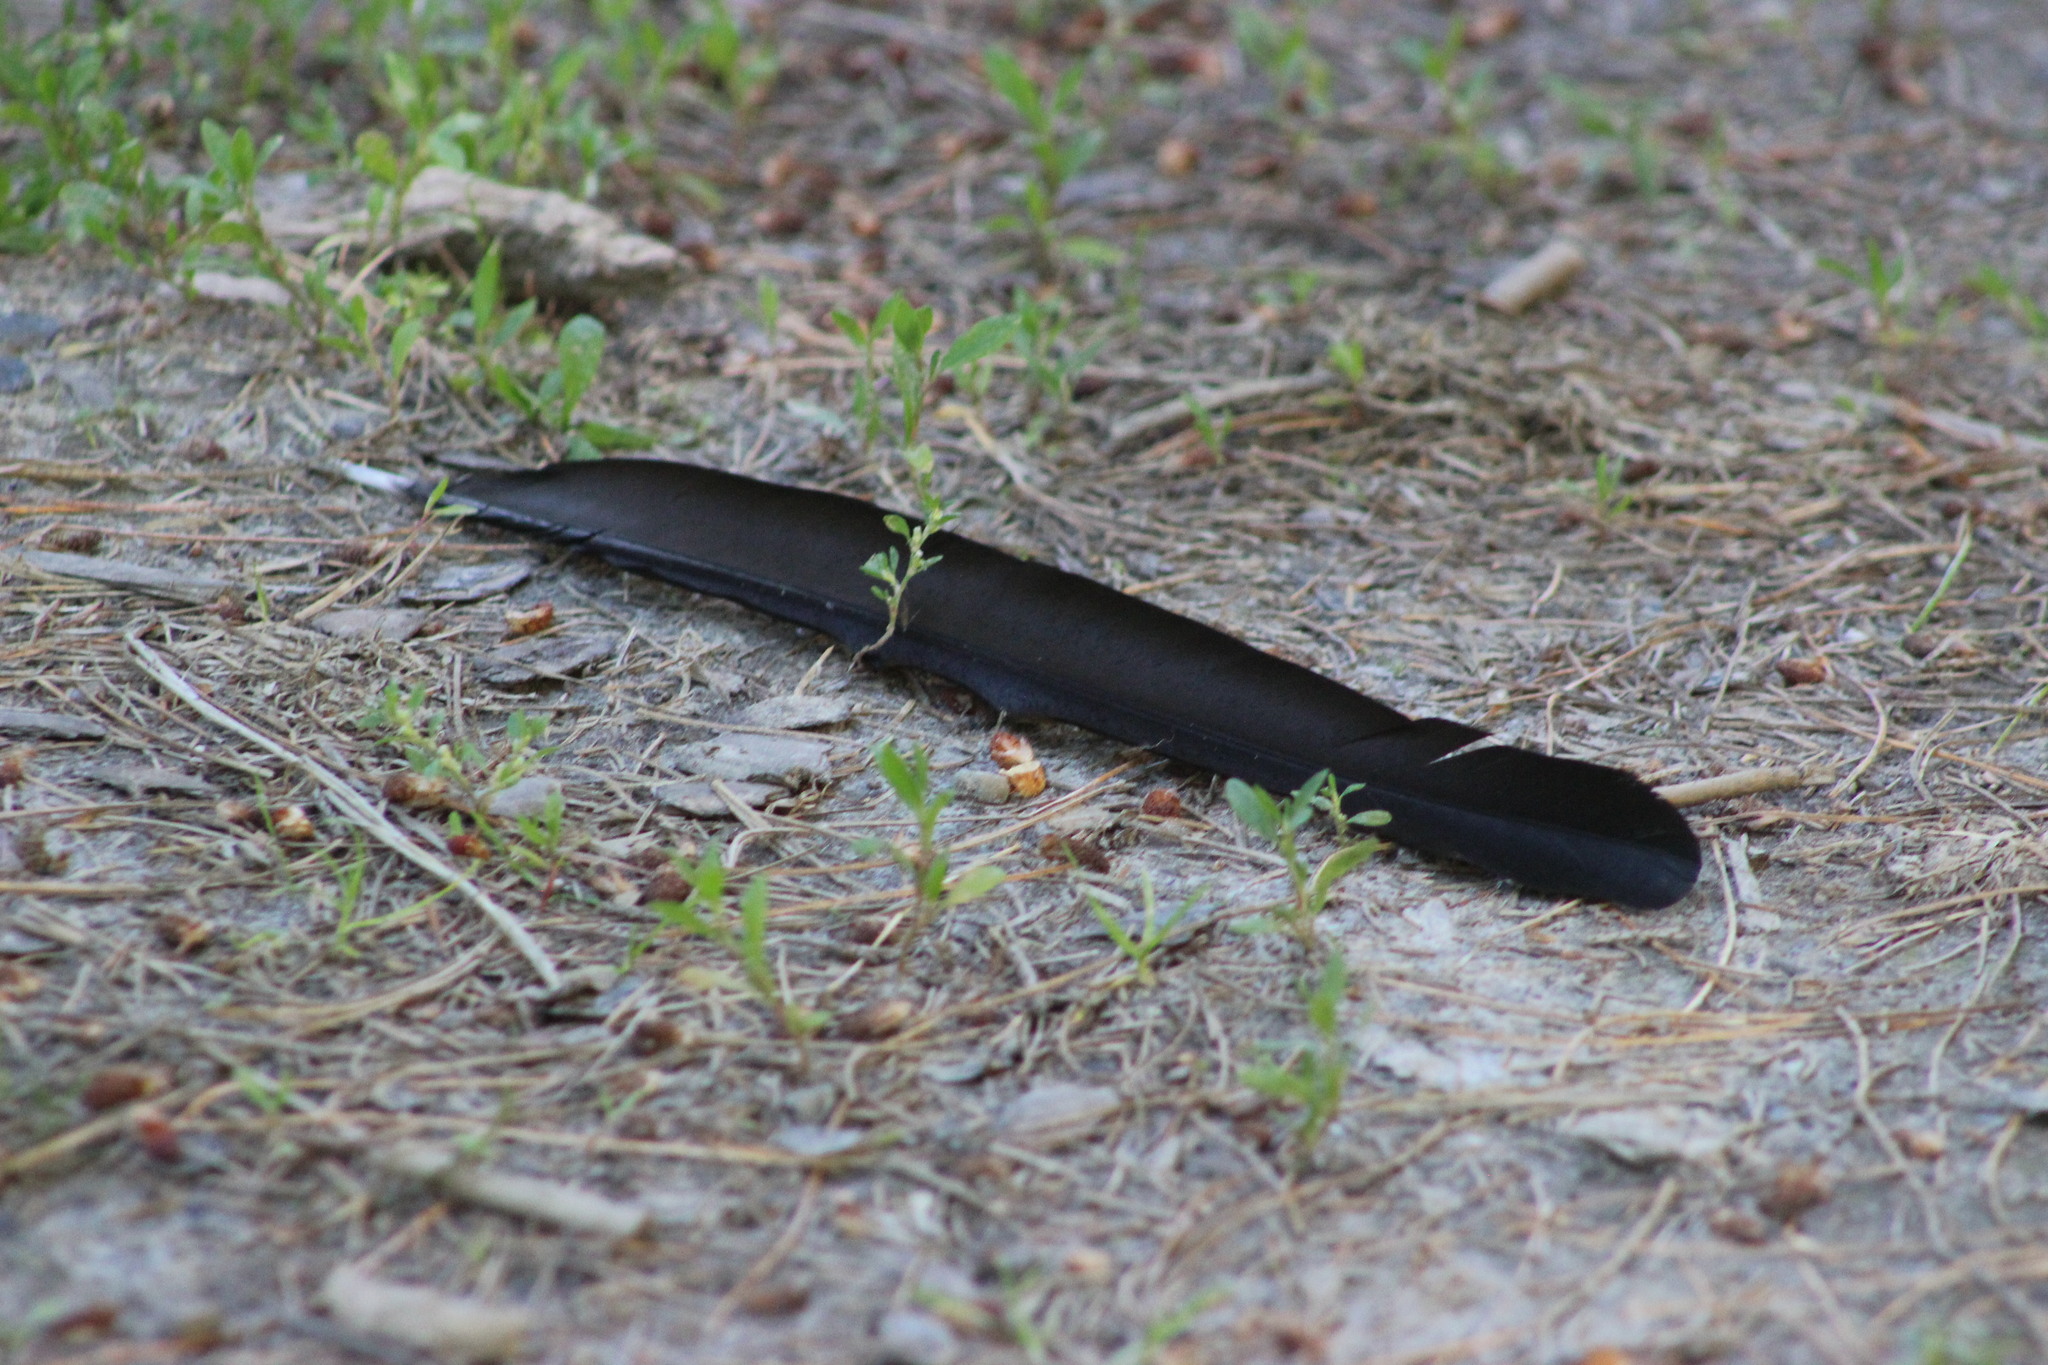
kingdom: Animalia
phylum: Chordata
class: Aves
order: Passeriformes
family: Corvidae
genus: Pica
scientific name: Pica pica
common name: Eurasian magpie
